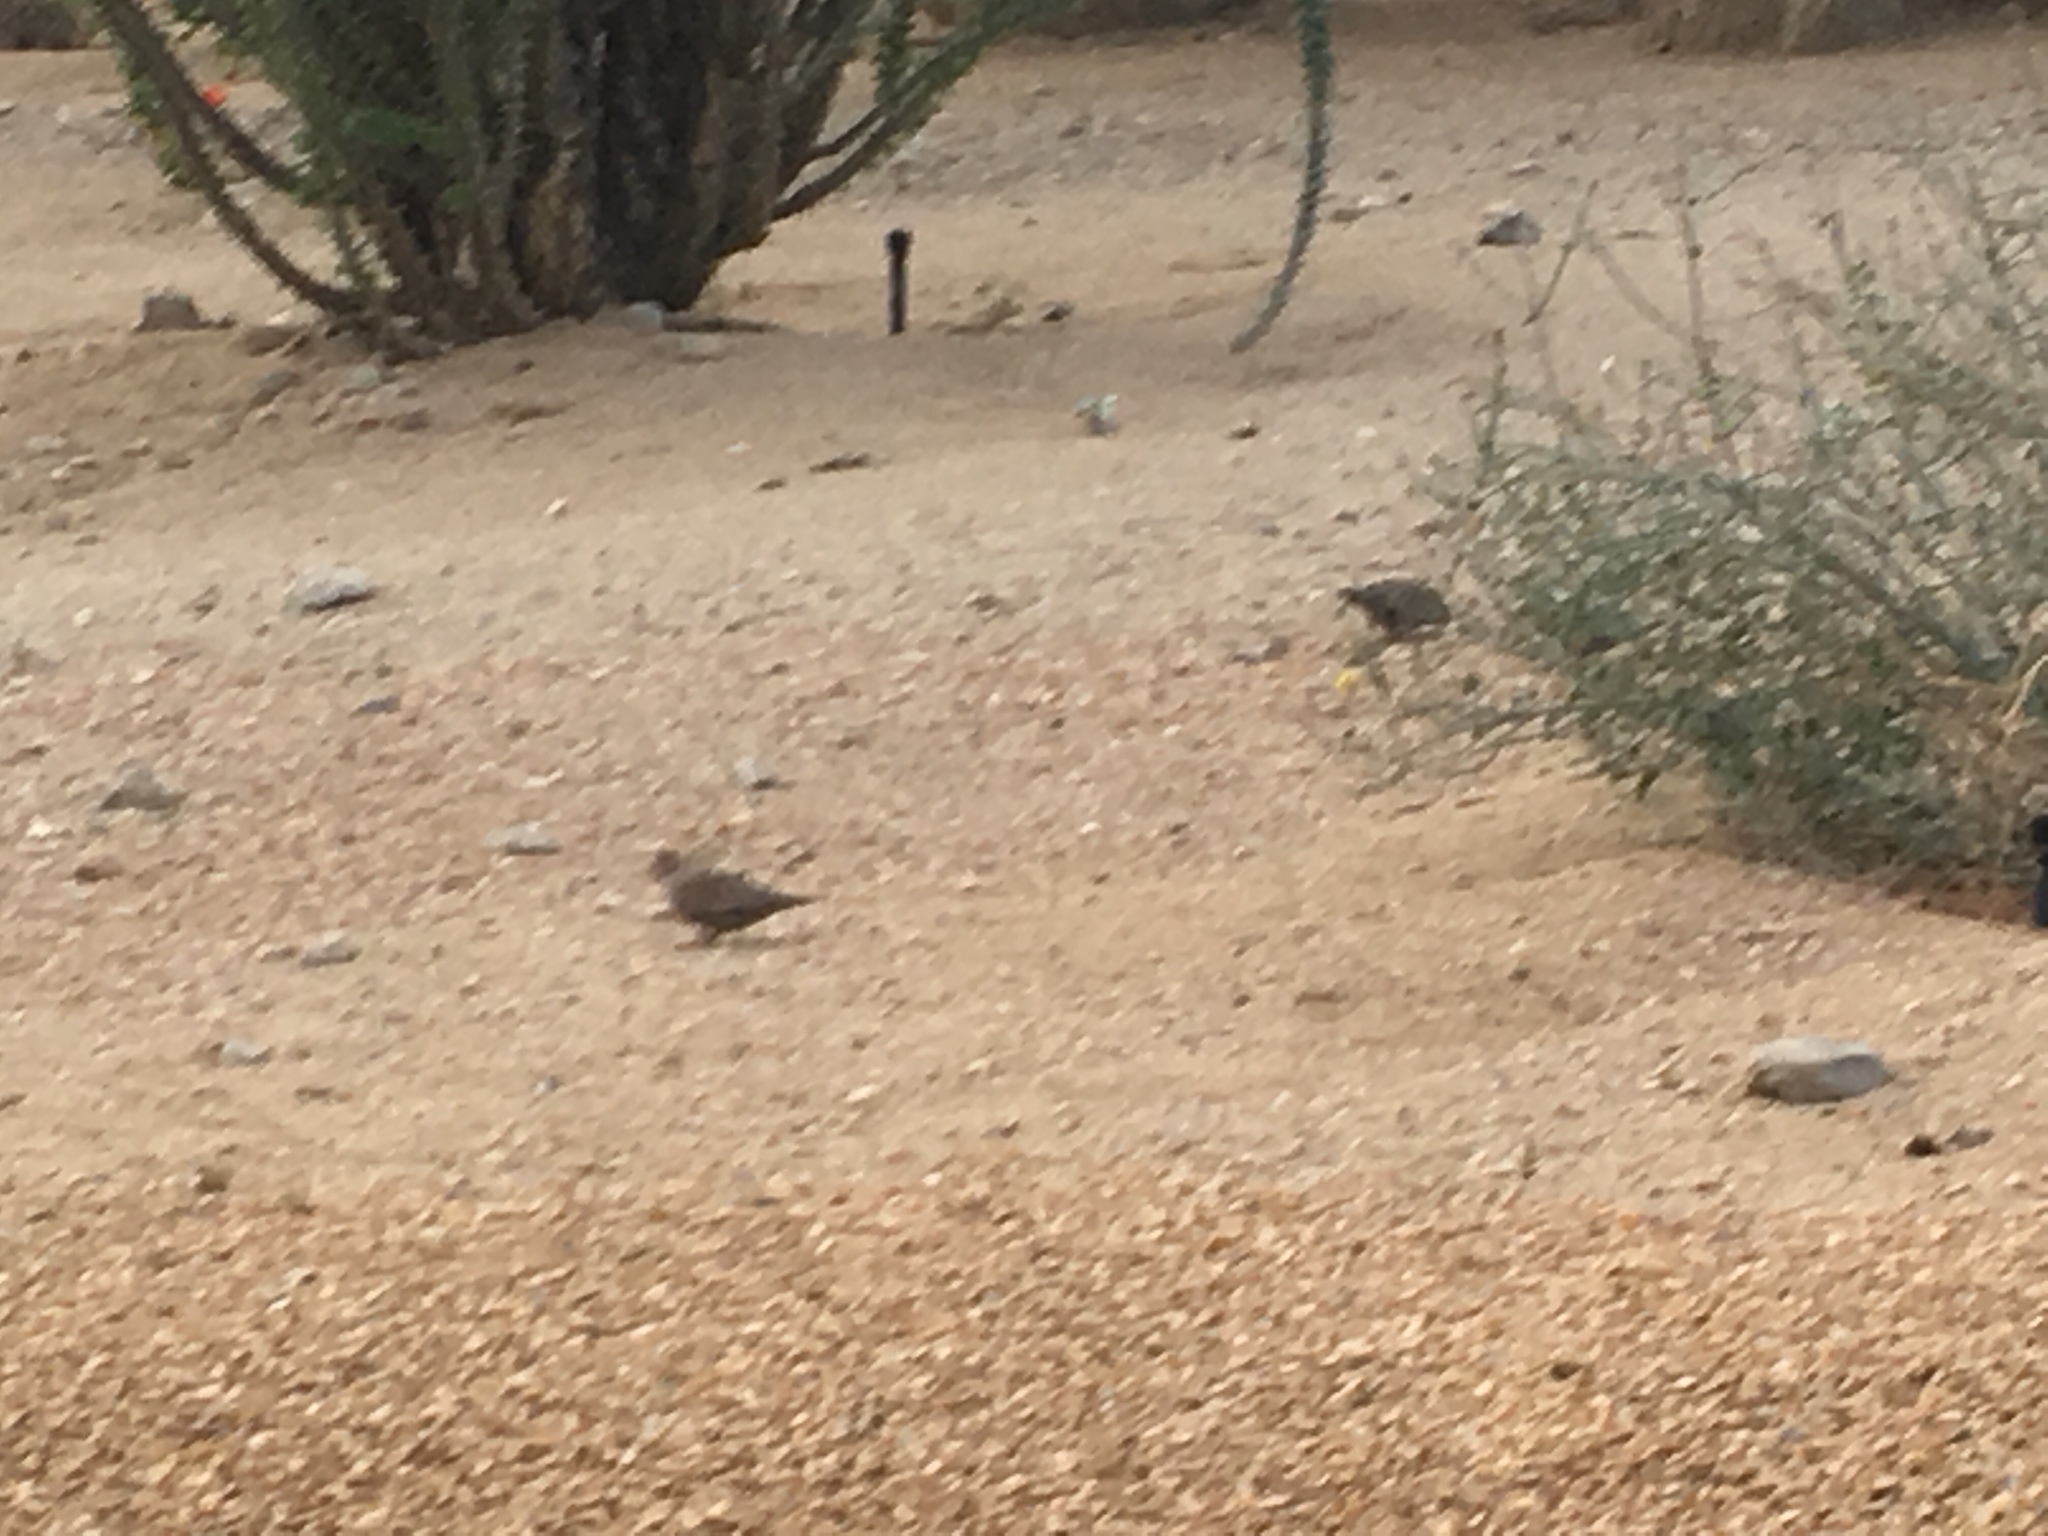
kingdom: Animalia
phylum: Chordata
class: Aves
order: Columbiformes
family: Columbidae
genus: Columbina
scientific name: Columbina passerina
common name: Common ground-dove
